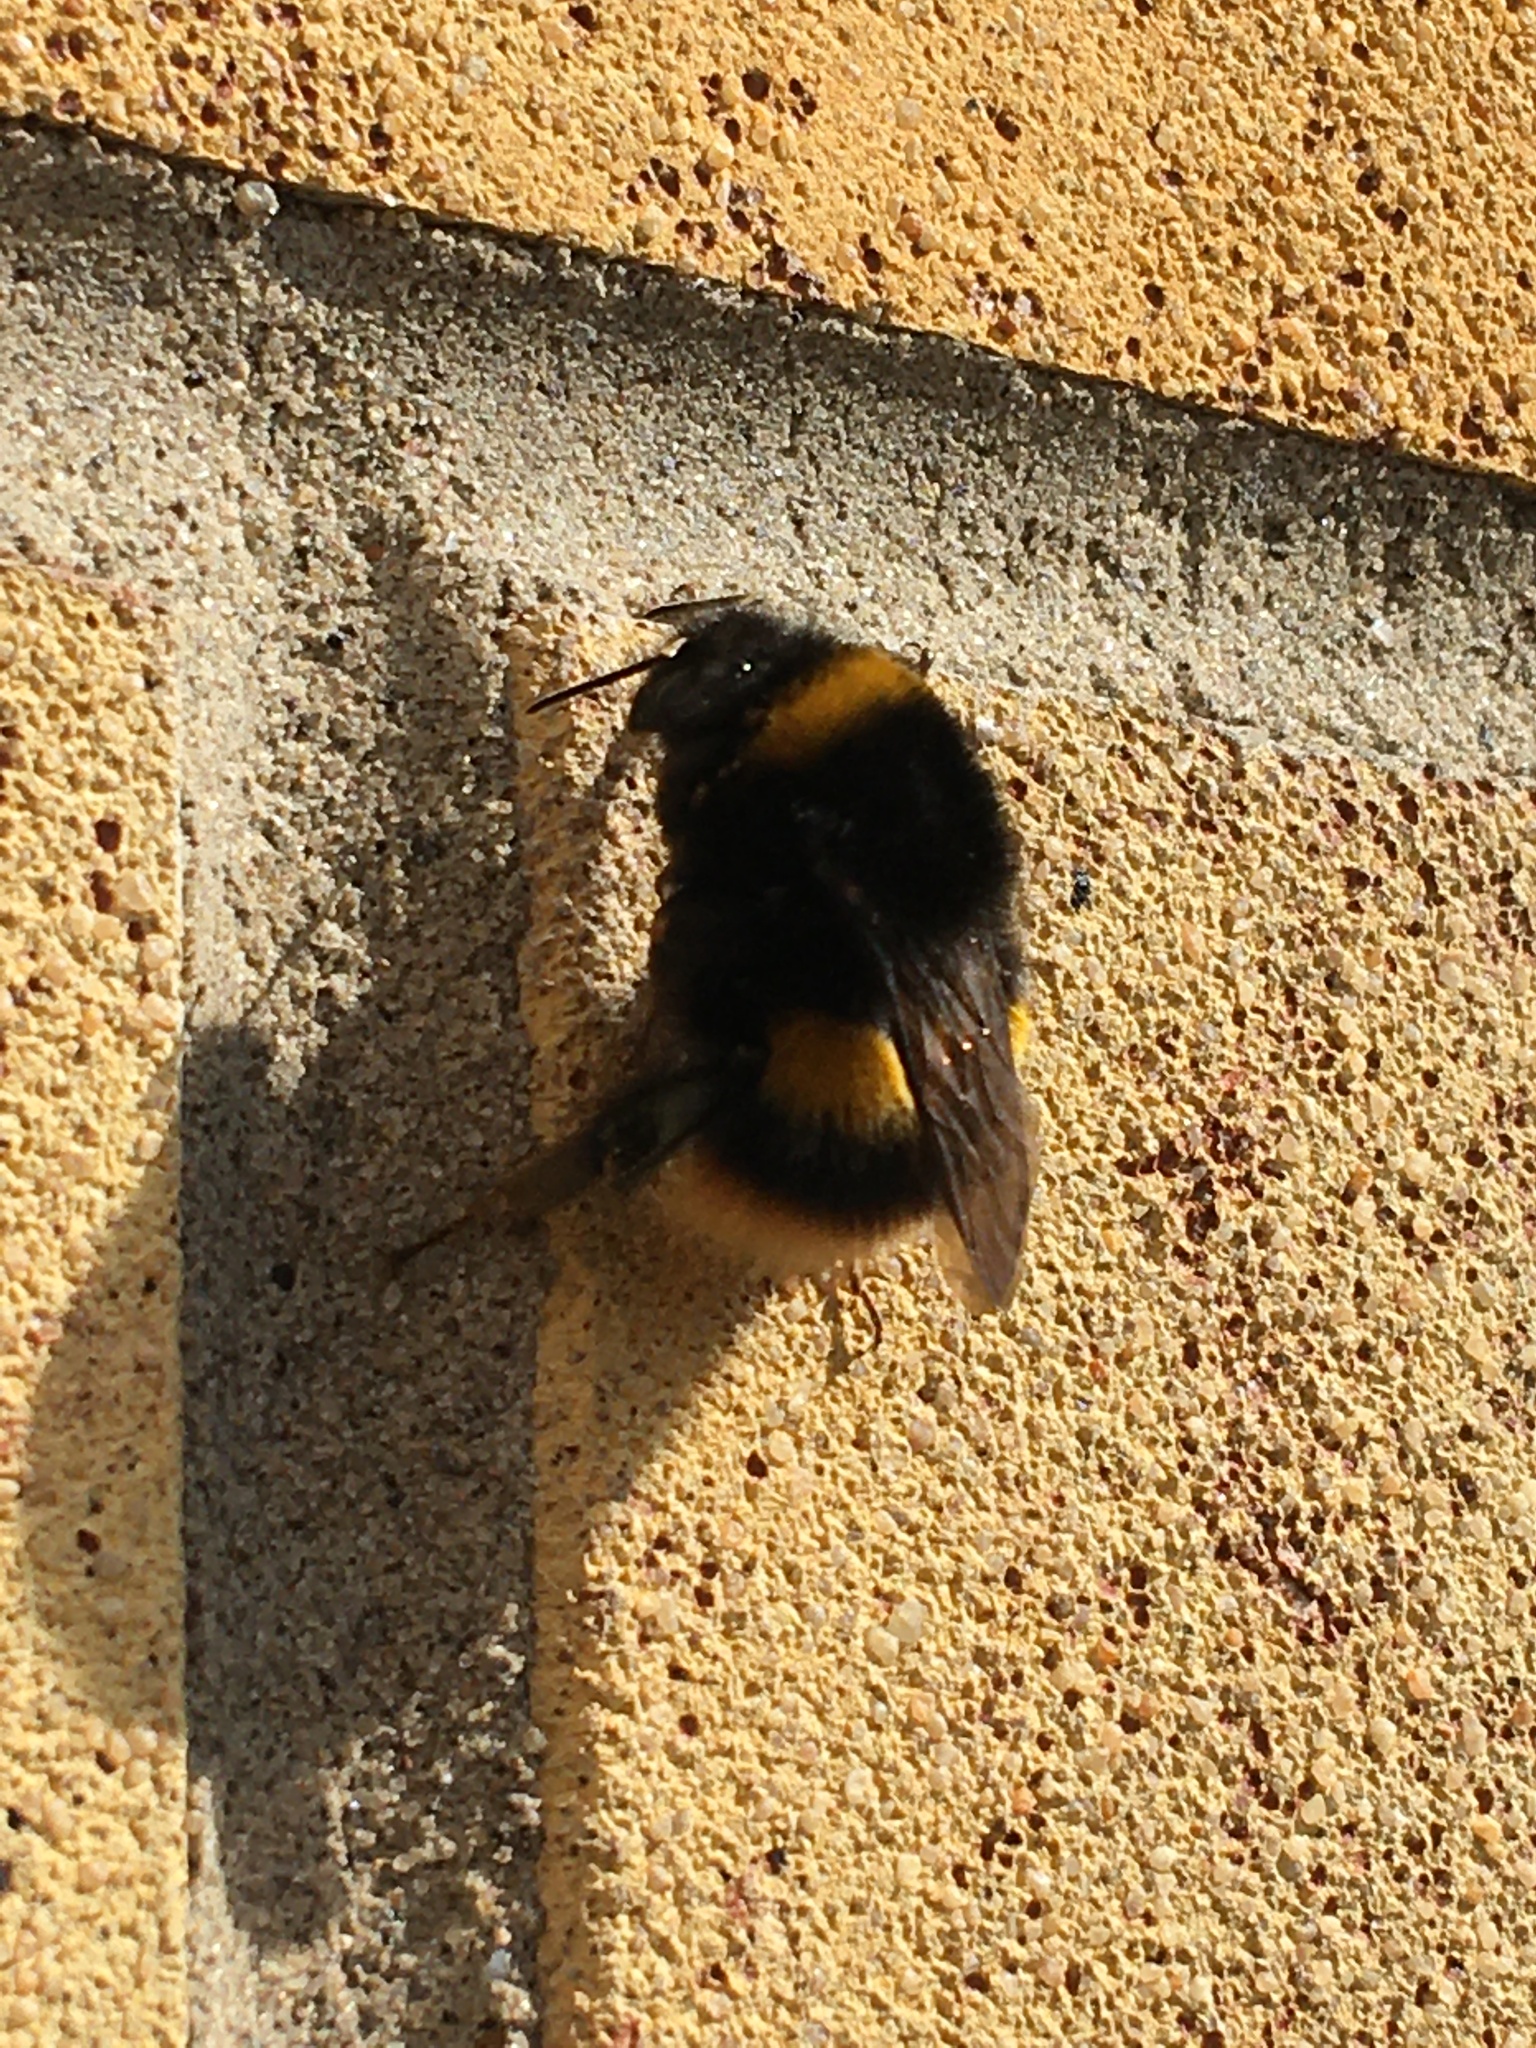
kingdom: Animalia
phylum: Arthropoda
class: Insecta
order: Hymenoptera
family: Apidae
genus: Bombus
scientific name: Bombus terrestris
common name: Buff-tailed bumblebee
